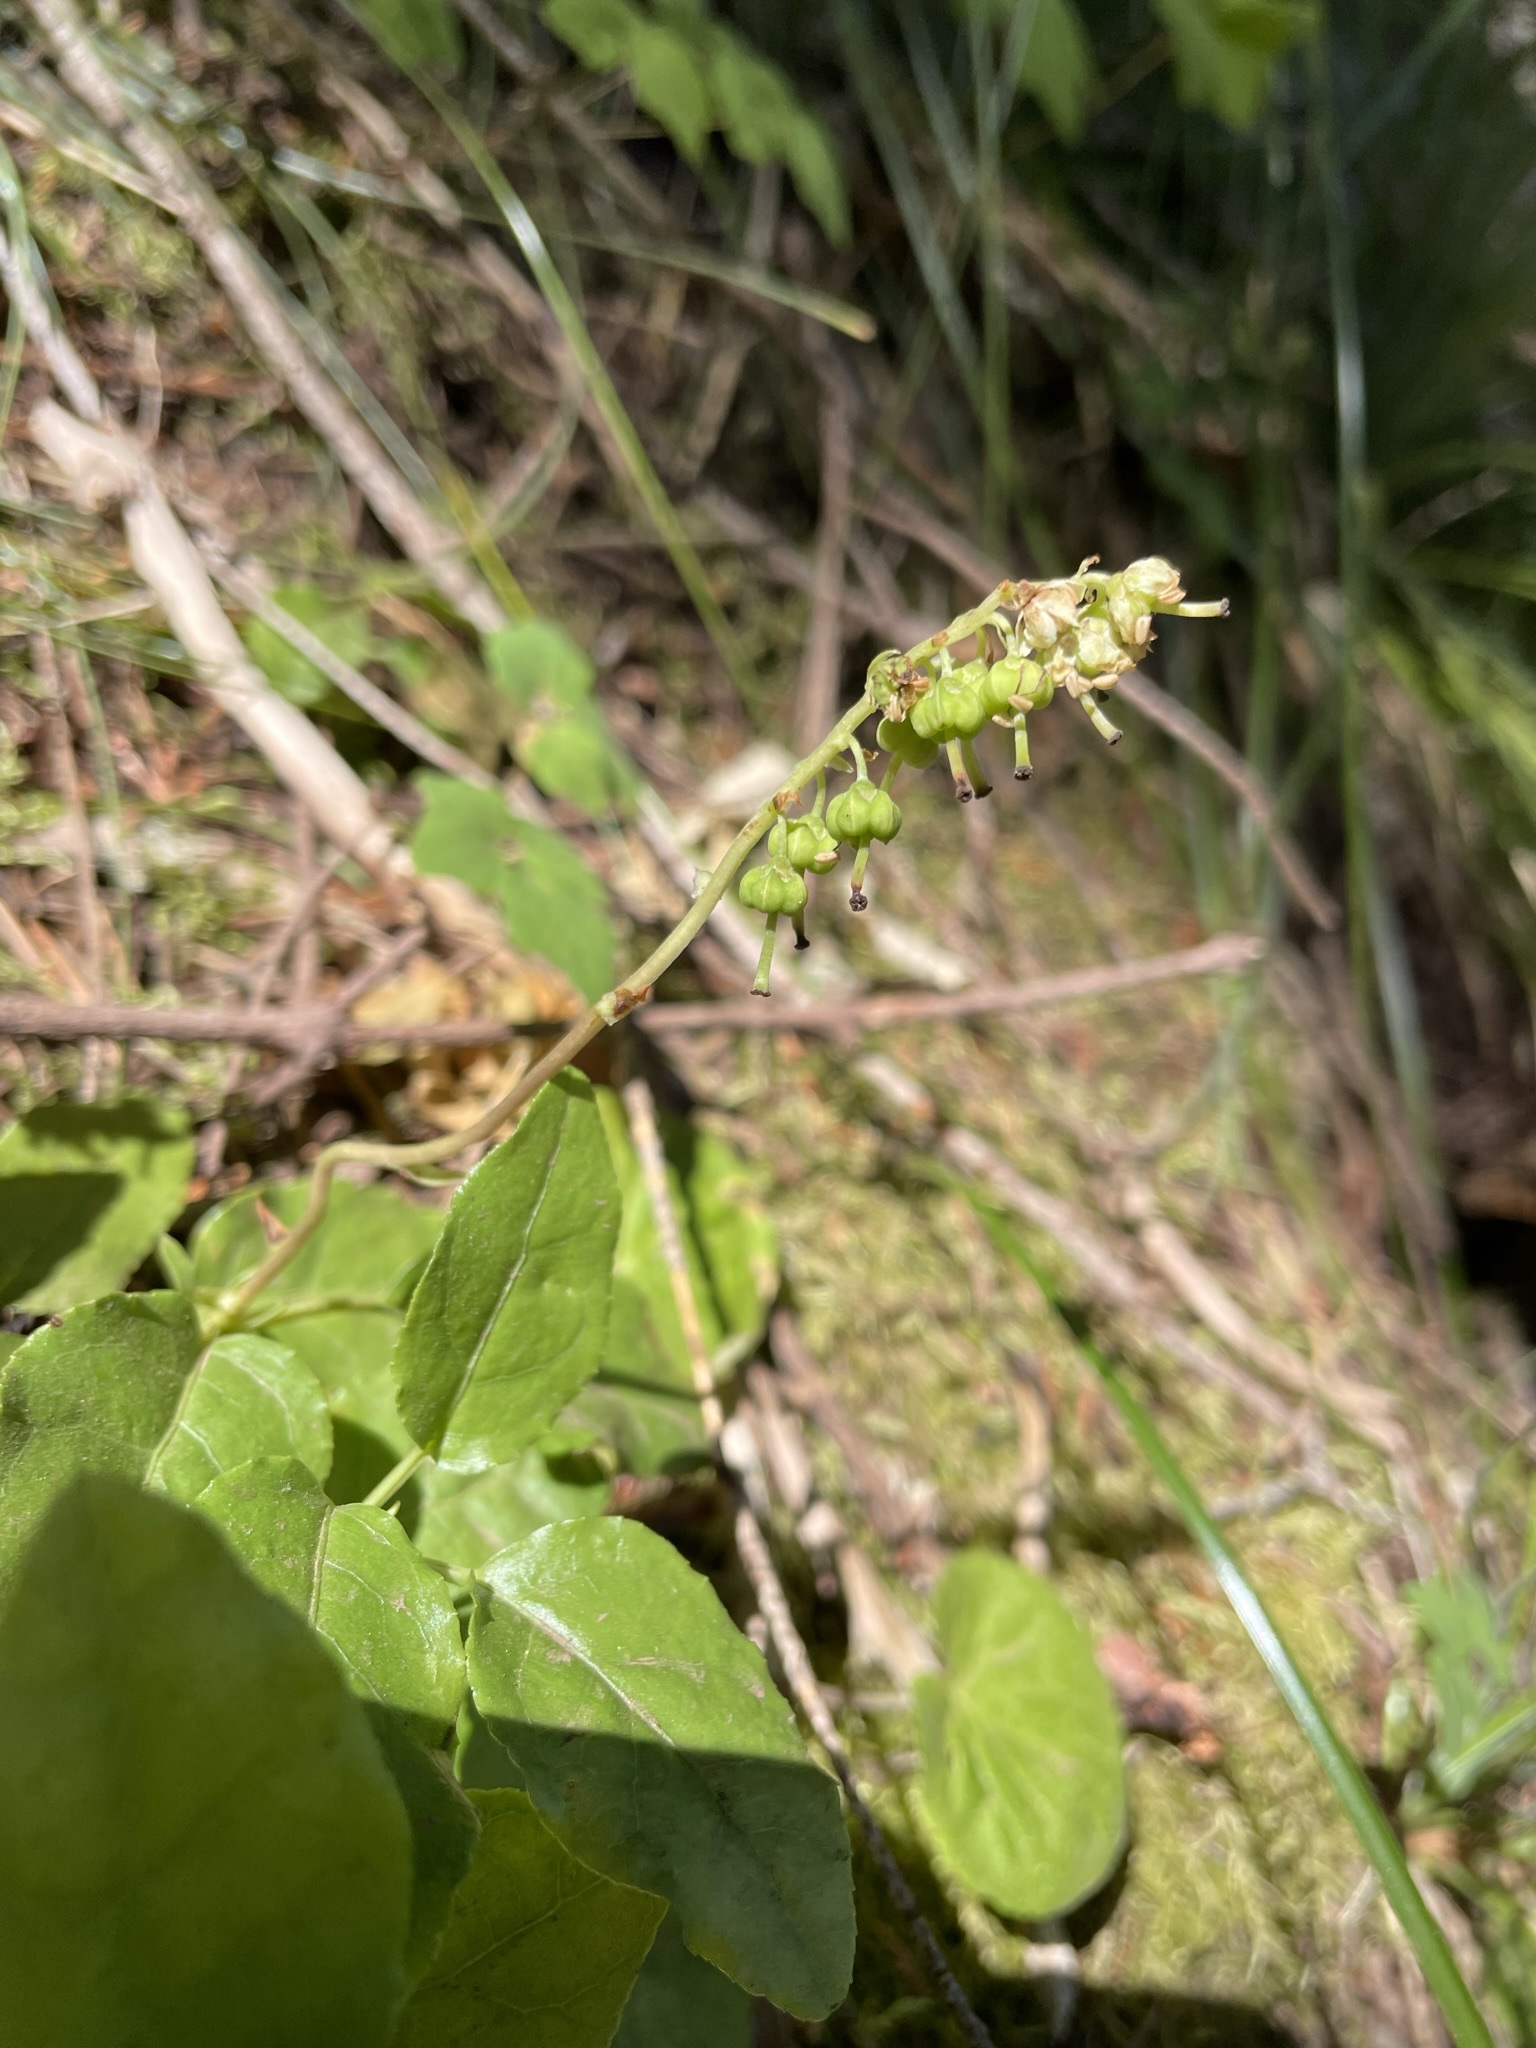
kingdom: Plantae
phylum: Tracheophyta
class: Magnoliopsida
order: Ericales
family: Ericaceae
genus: Orthilia
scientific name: Orthilia secunda
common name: One-sided orthilia
